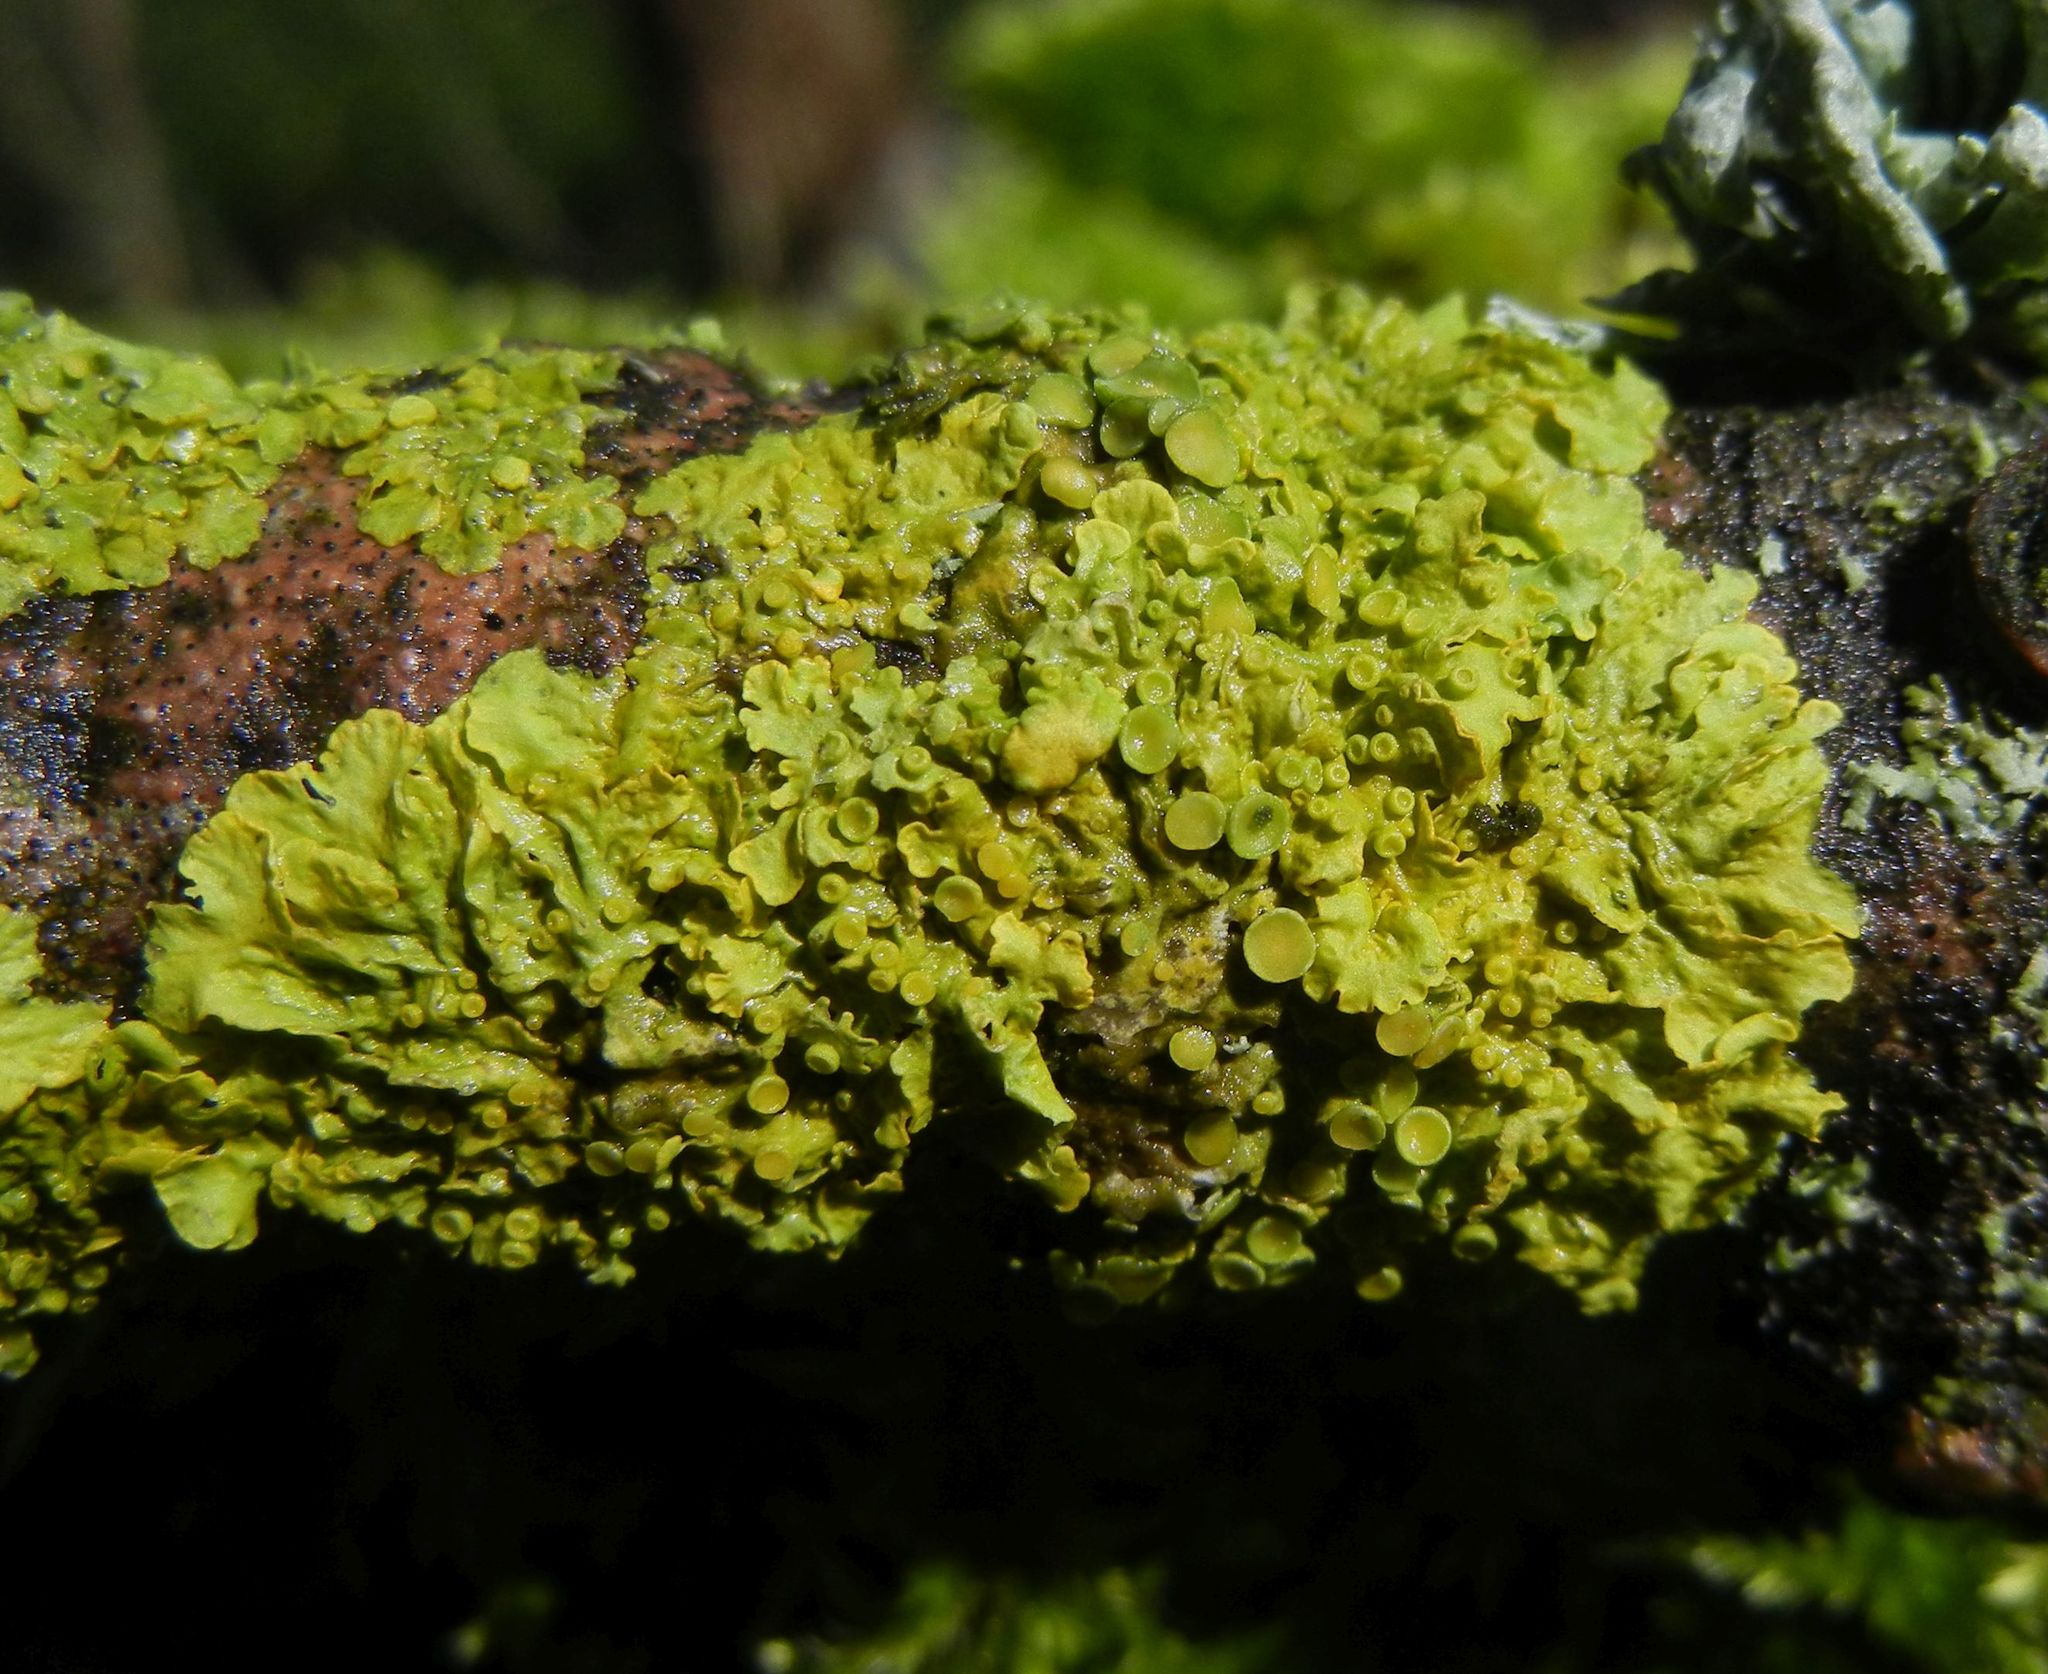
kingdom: Fungi
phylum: Ascomycota
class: Lecanoromycetes
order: Teloschistales
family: Teloschistaceae
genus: Xanthoria
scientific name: Xanthoria parietina
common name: Common orange lichen
